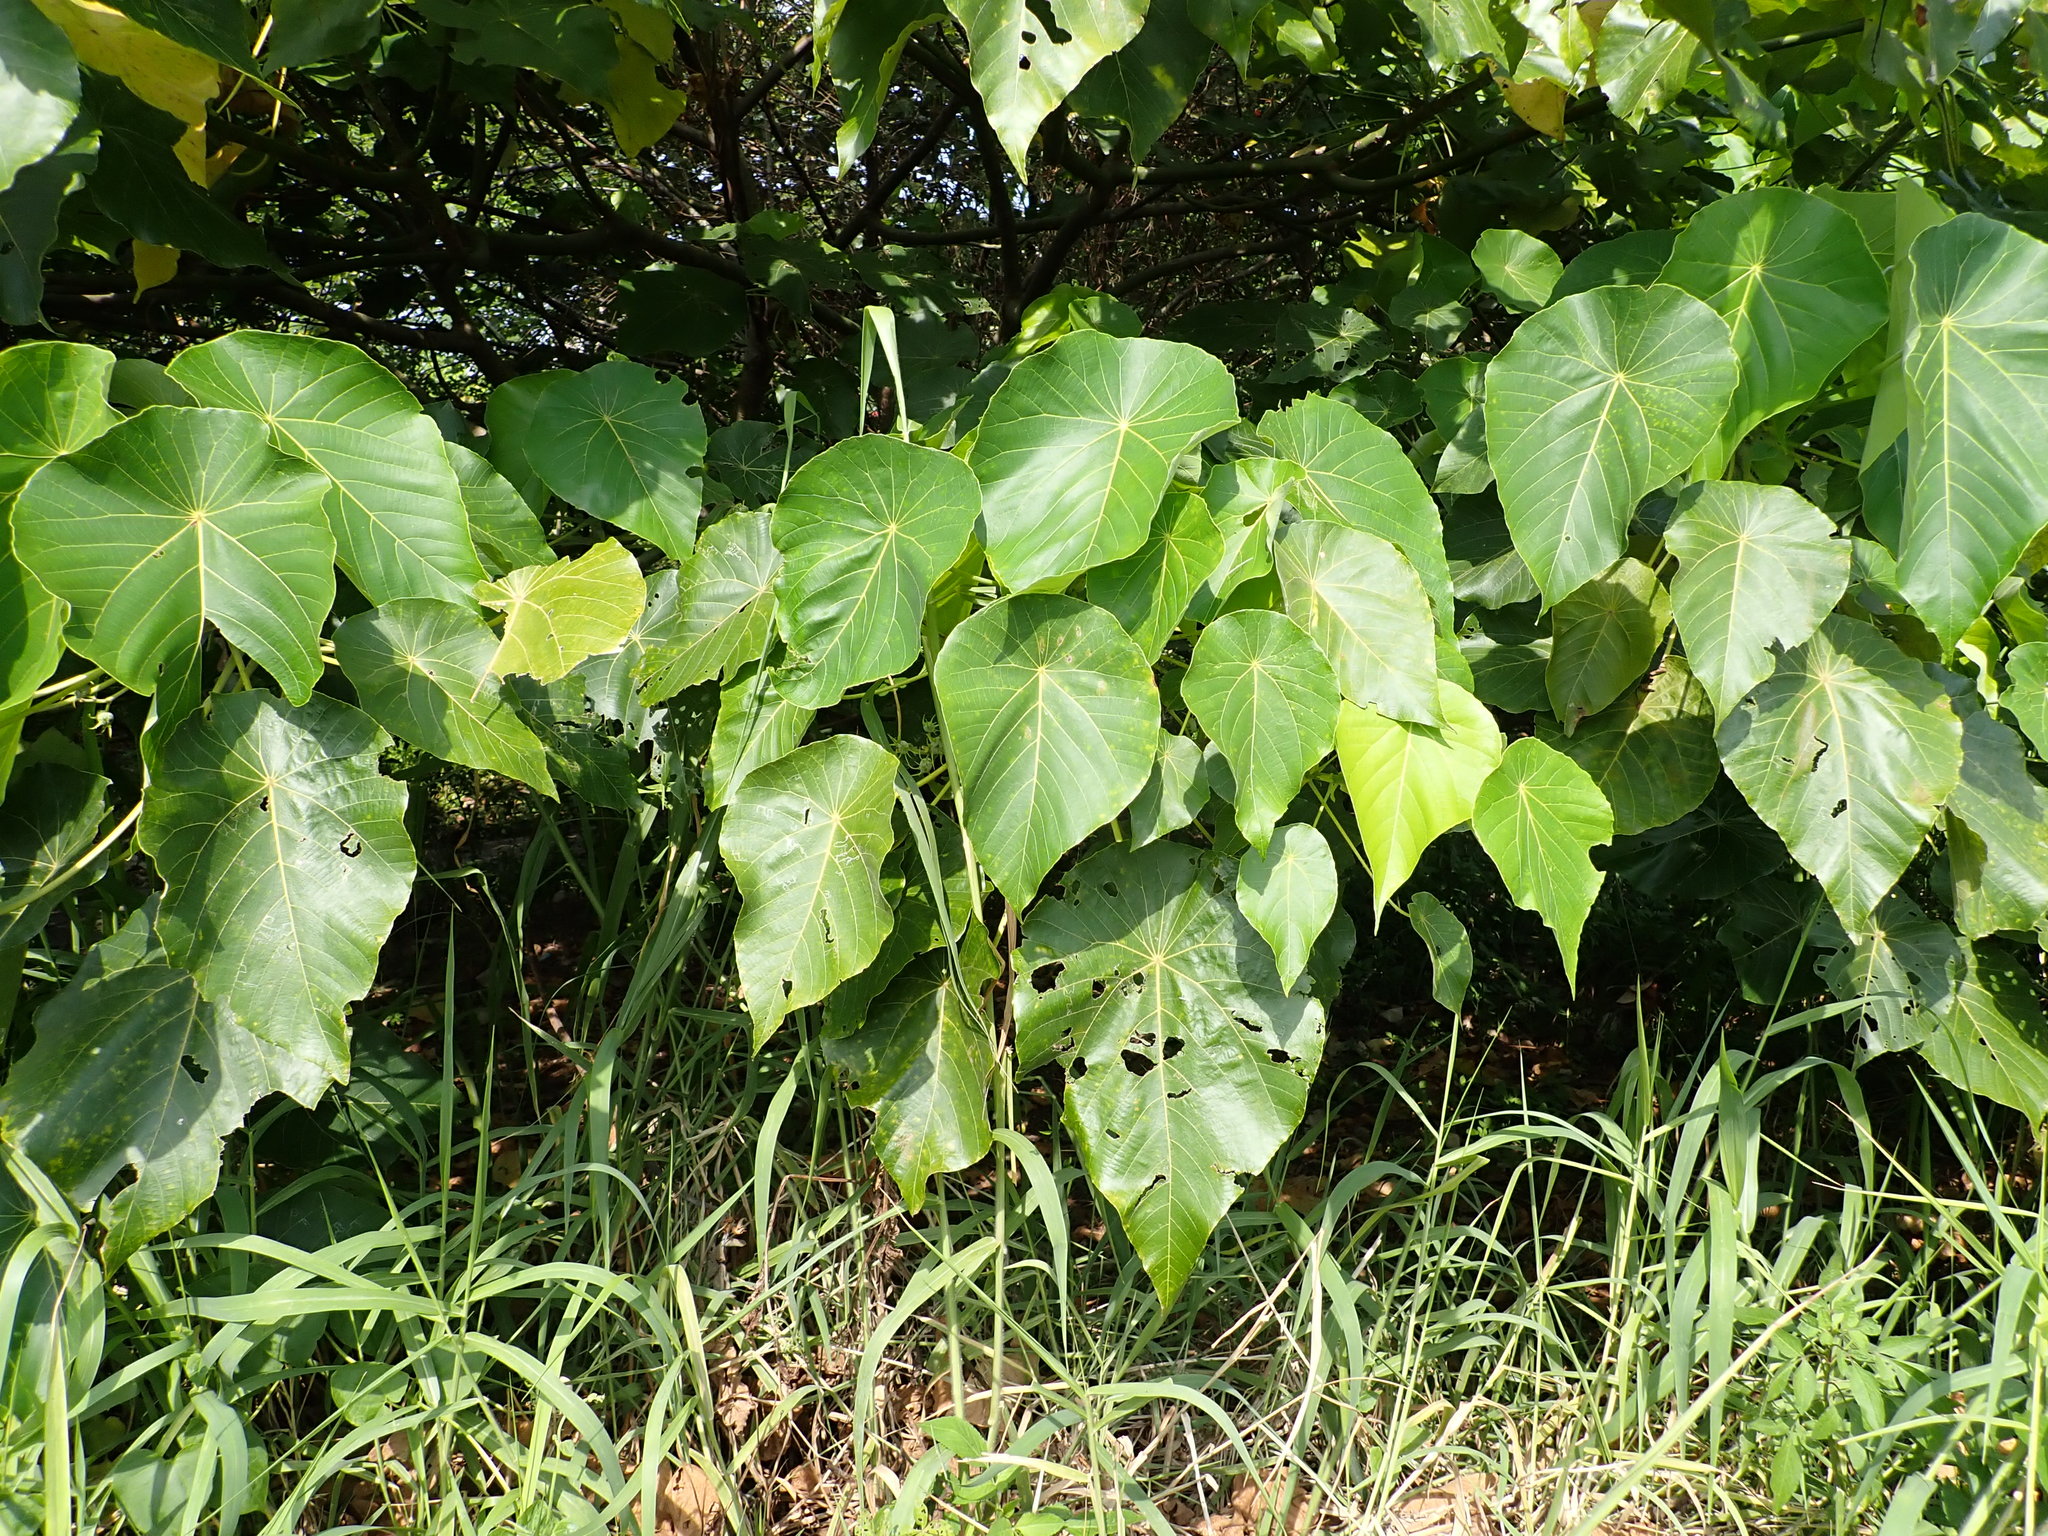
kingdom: Plantae
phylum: Tracheophyta
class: Magnoliopsida
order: Malpighiales
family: Euphorbiaceae
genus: Macaranga
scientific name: Macaranga tanarius
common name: Parasol leaf tree
